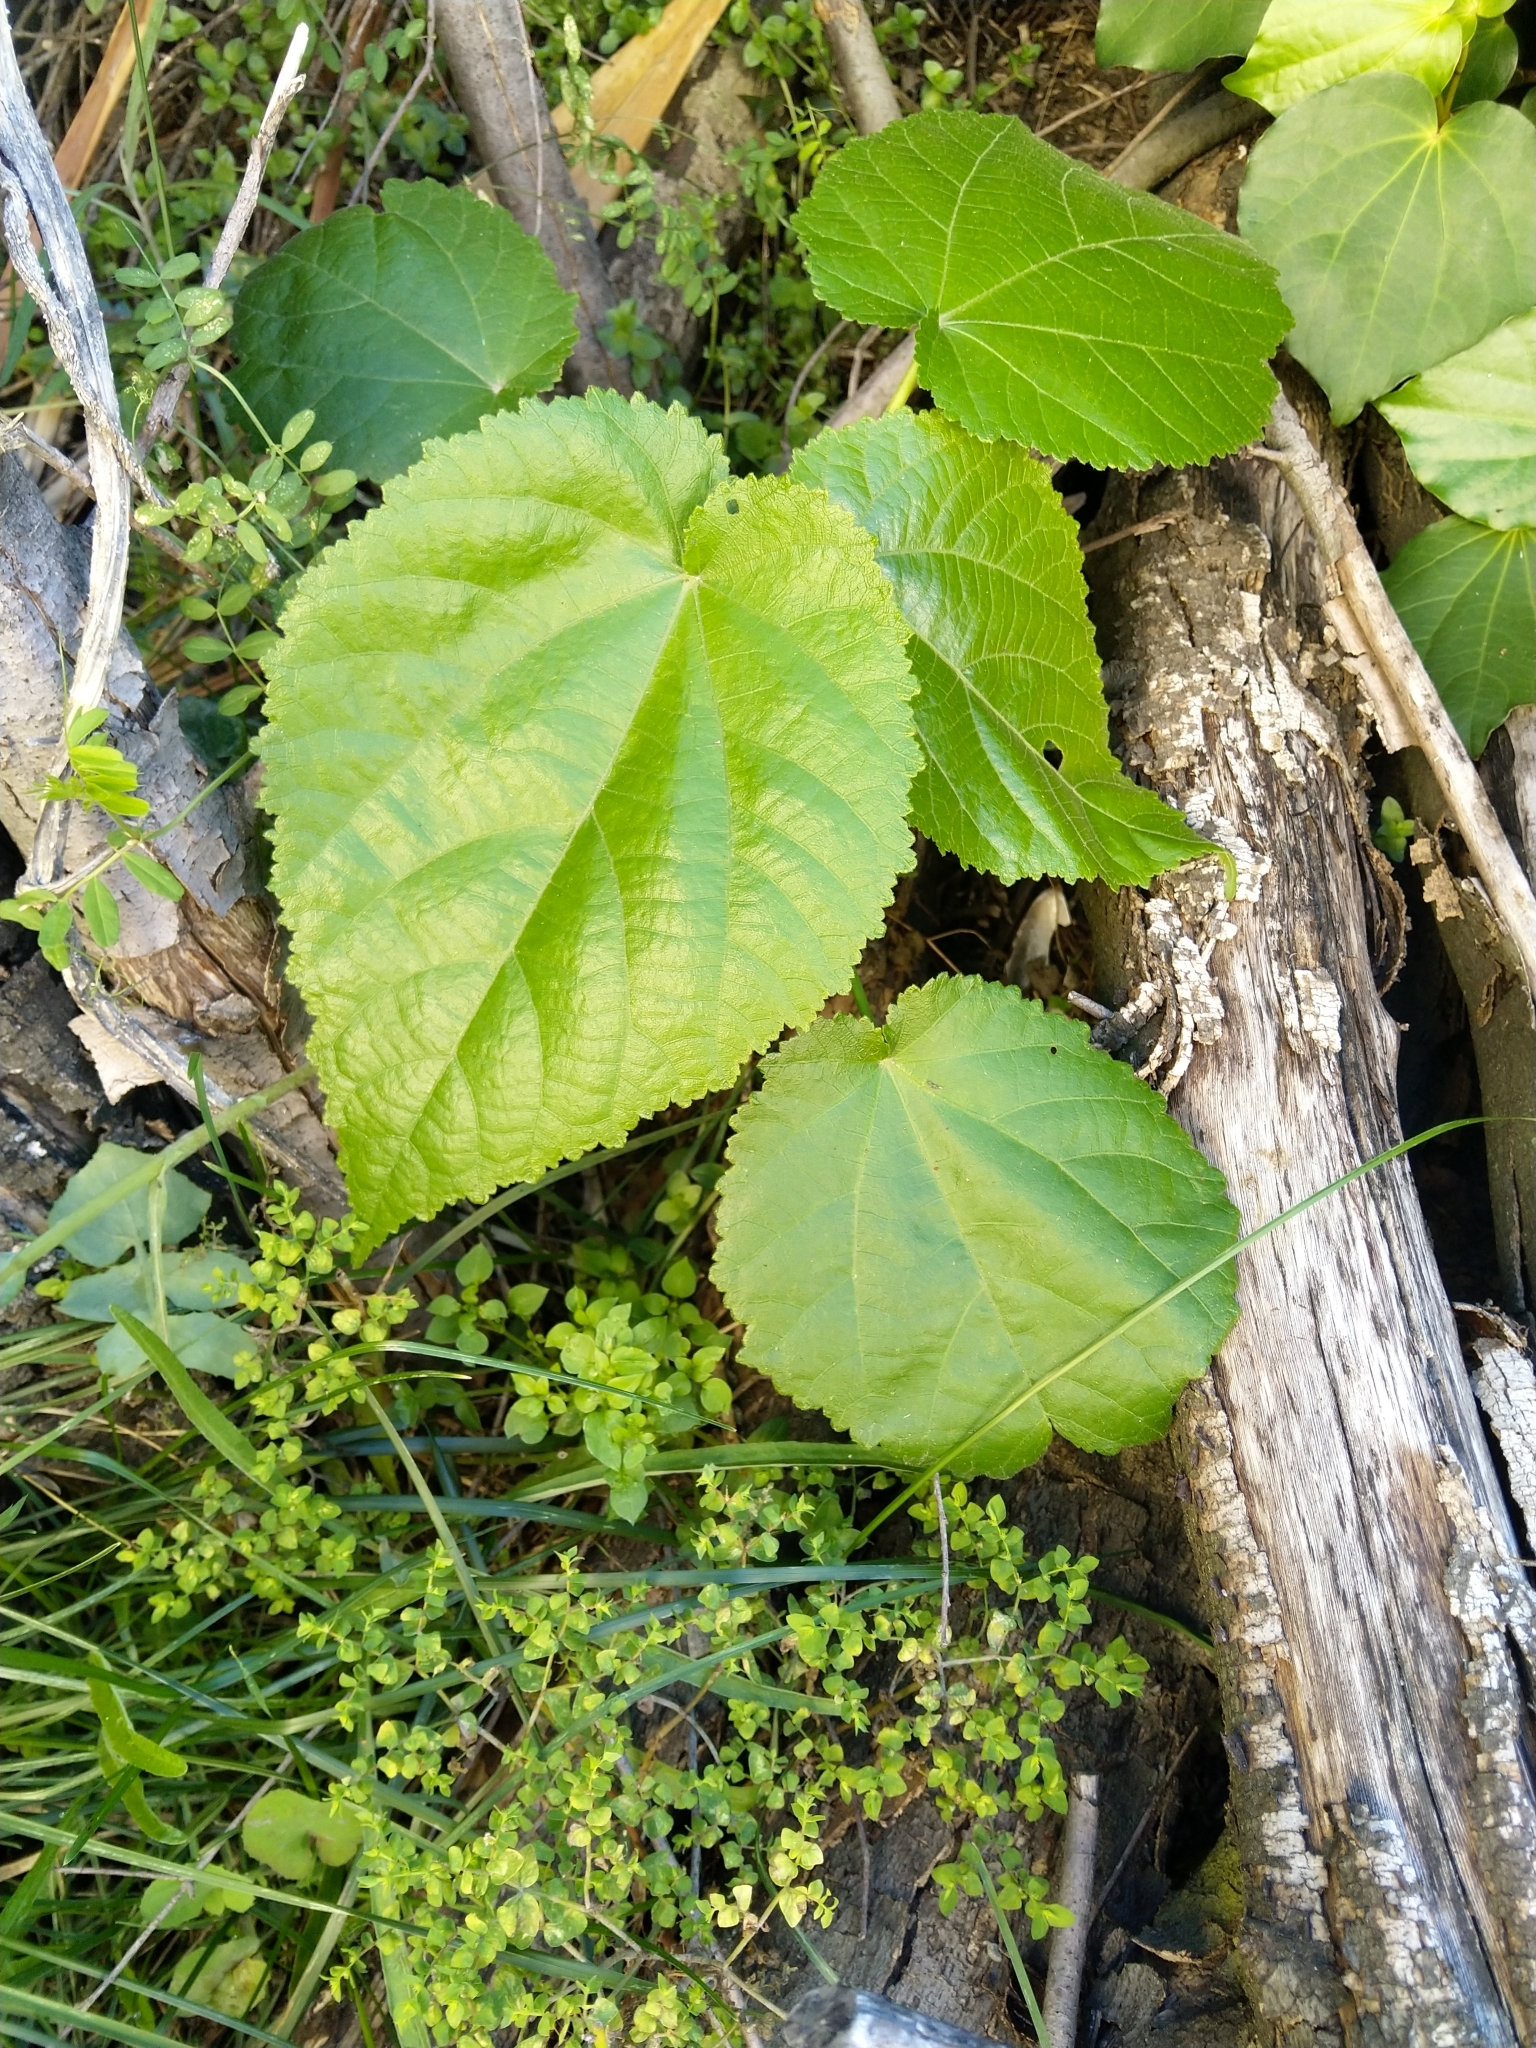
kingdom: Plantae
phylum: Tracheophyta
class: Magnoliopsida
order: Malvales
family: Malvaceae
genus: Entelea
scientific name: Entelea arborescens
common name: New zealand-mulberry
